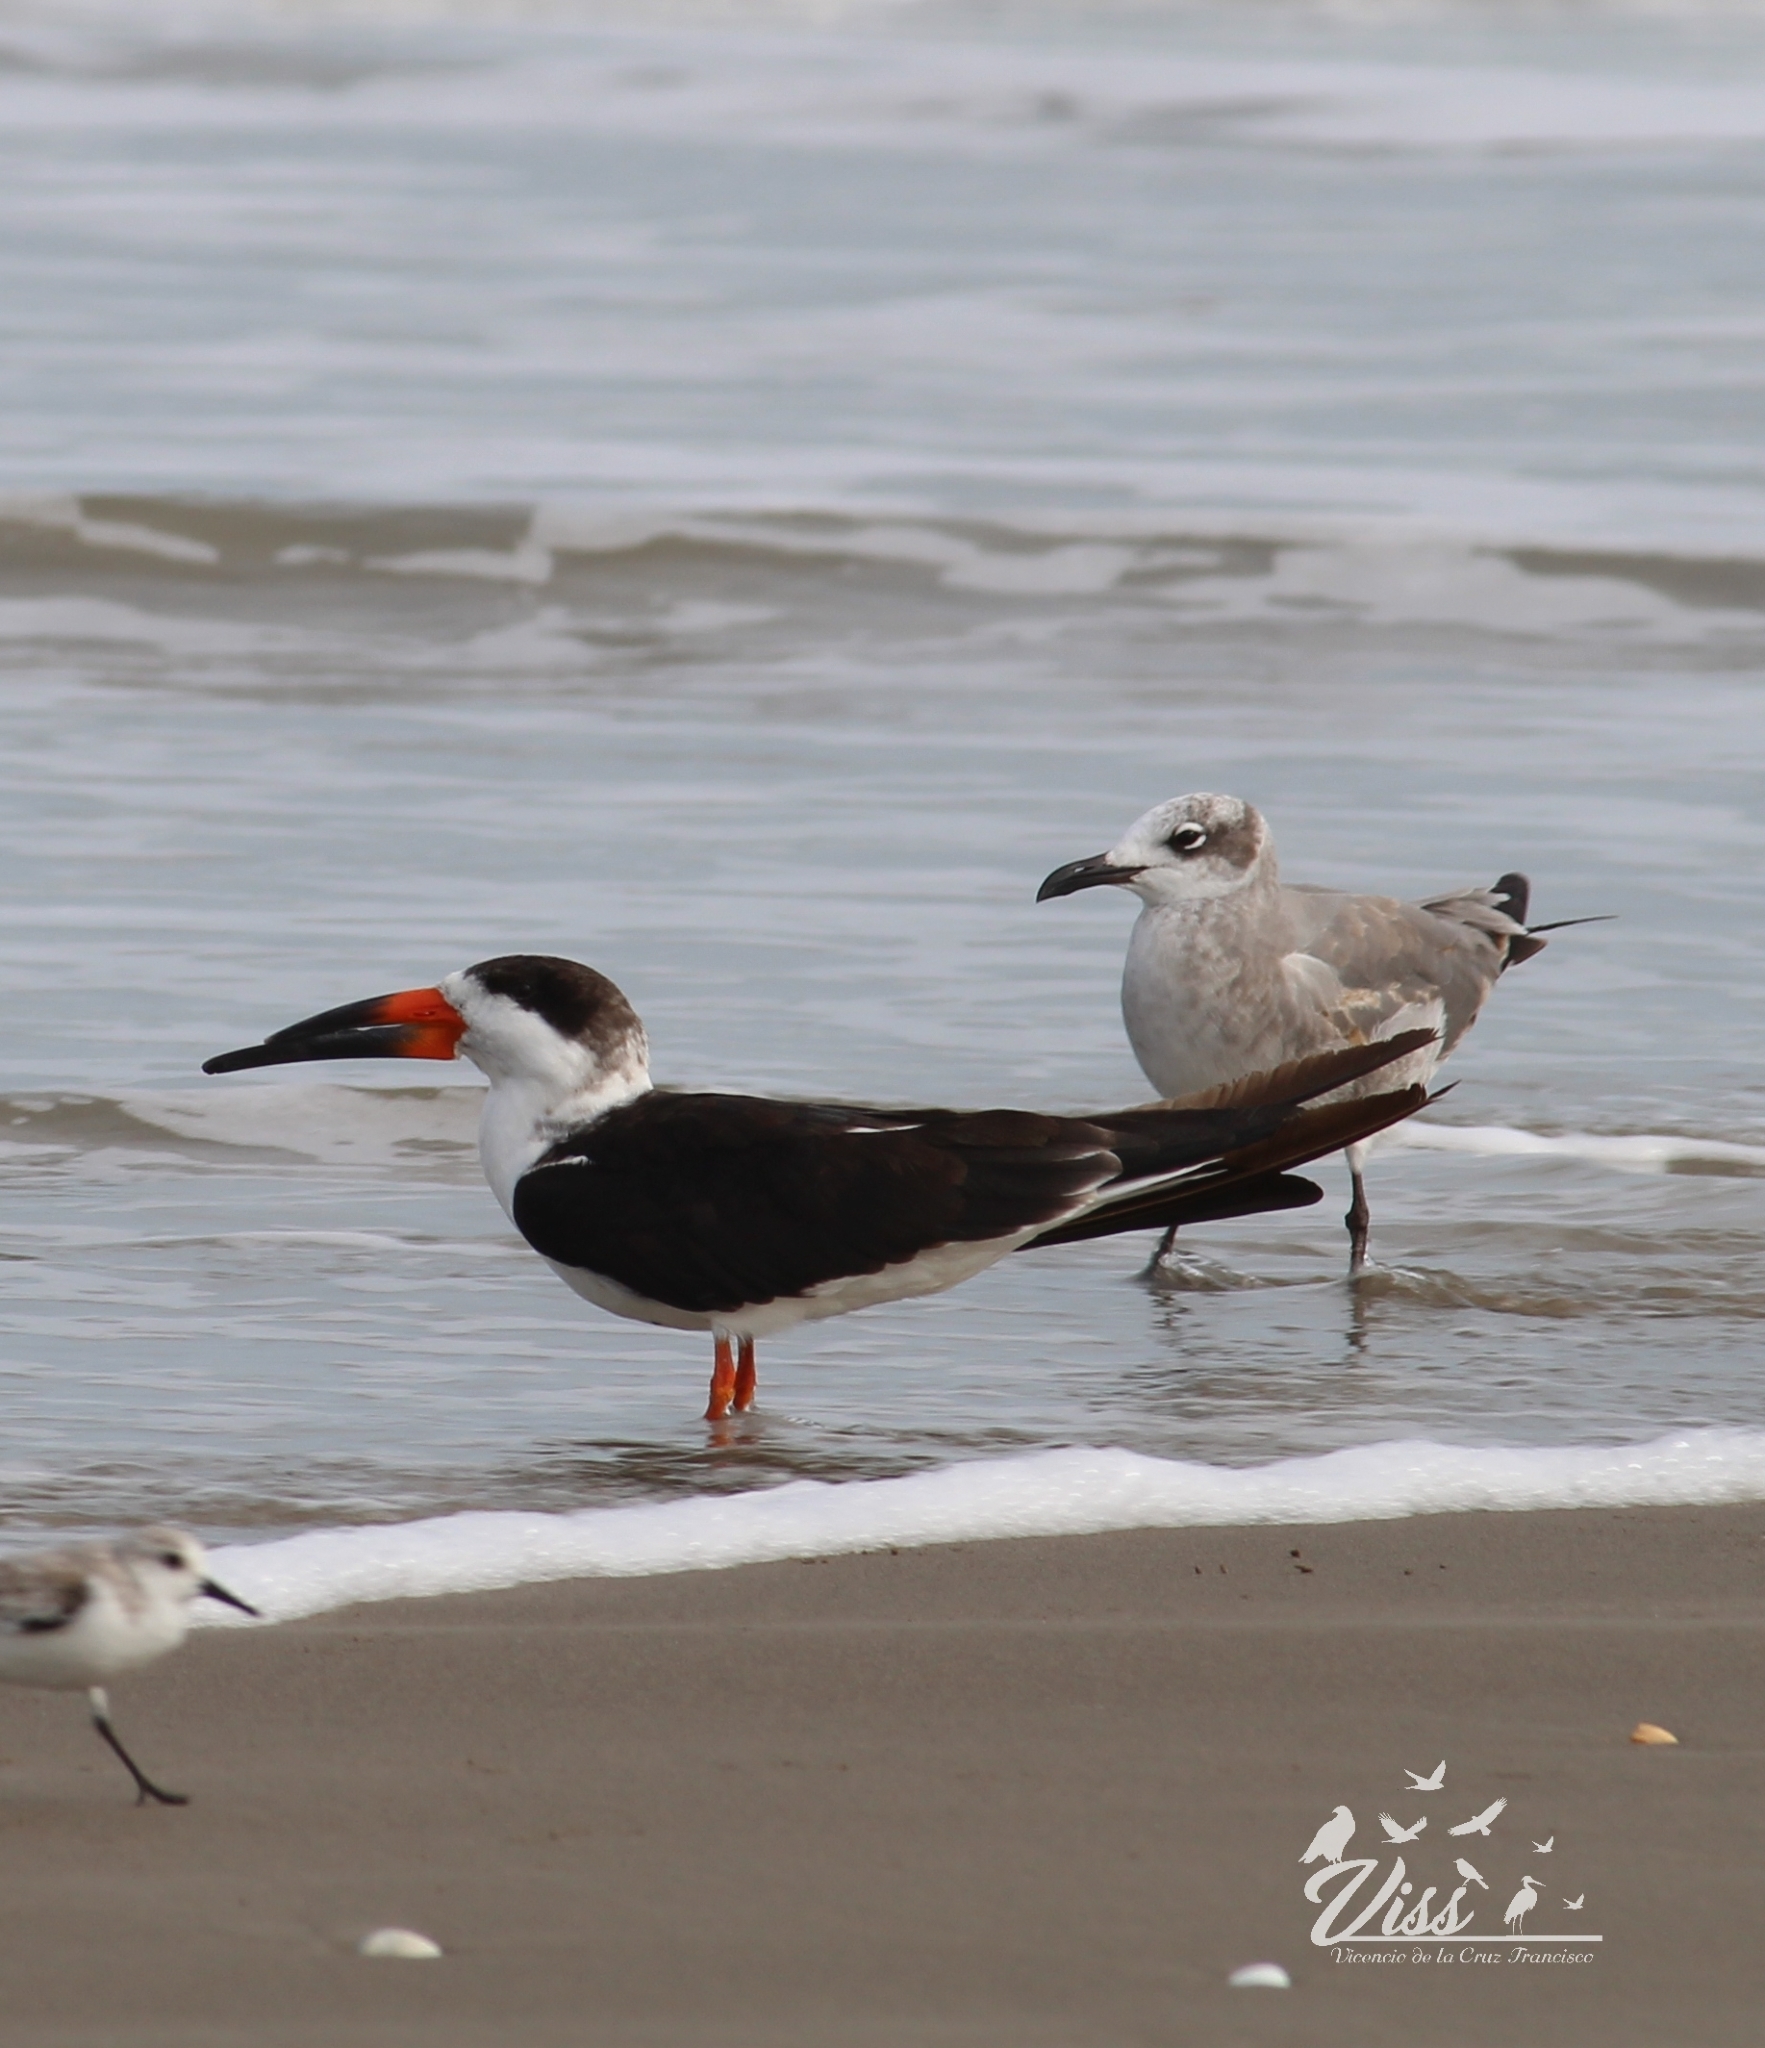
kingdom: Animalia
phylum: Chordata
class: Aves
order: Charadriiformes
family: Laridae
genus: Rynchops
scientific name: Rynchops niger
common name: Black skimmer
